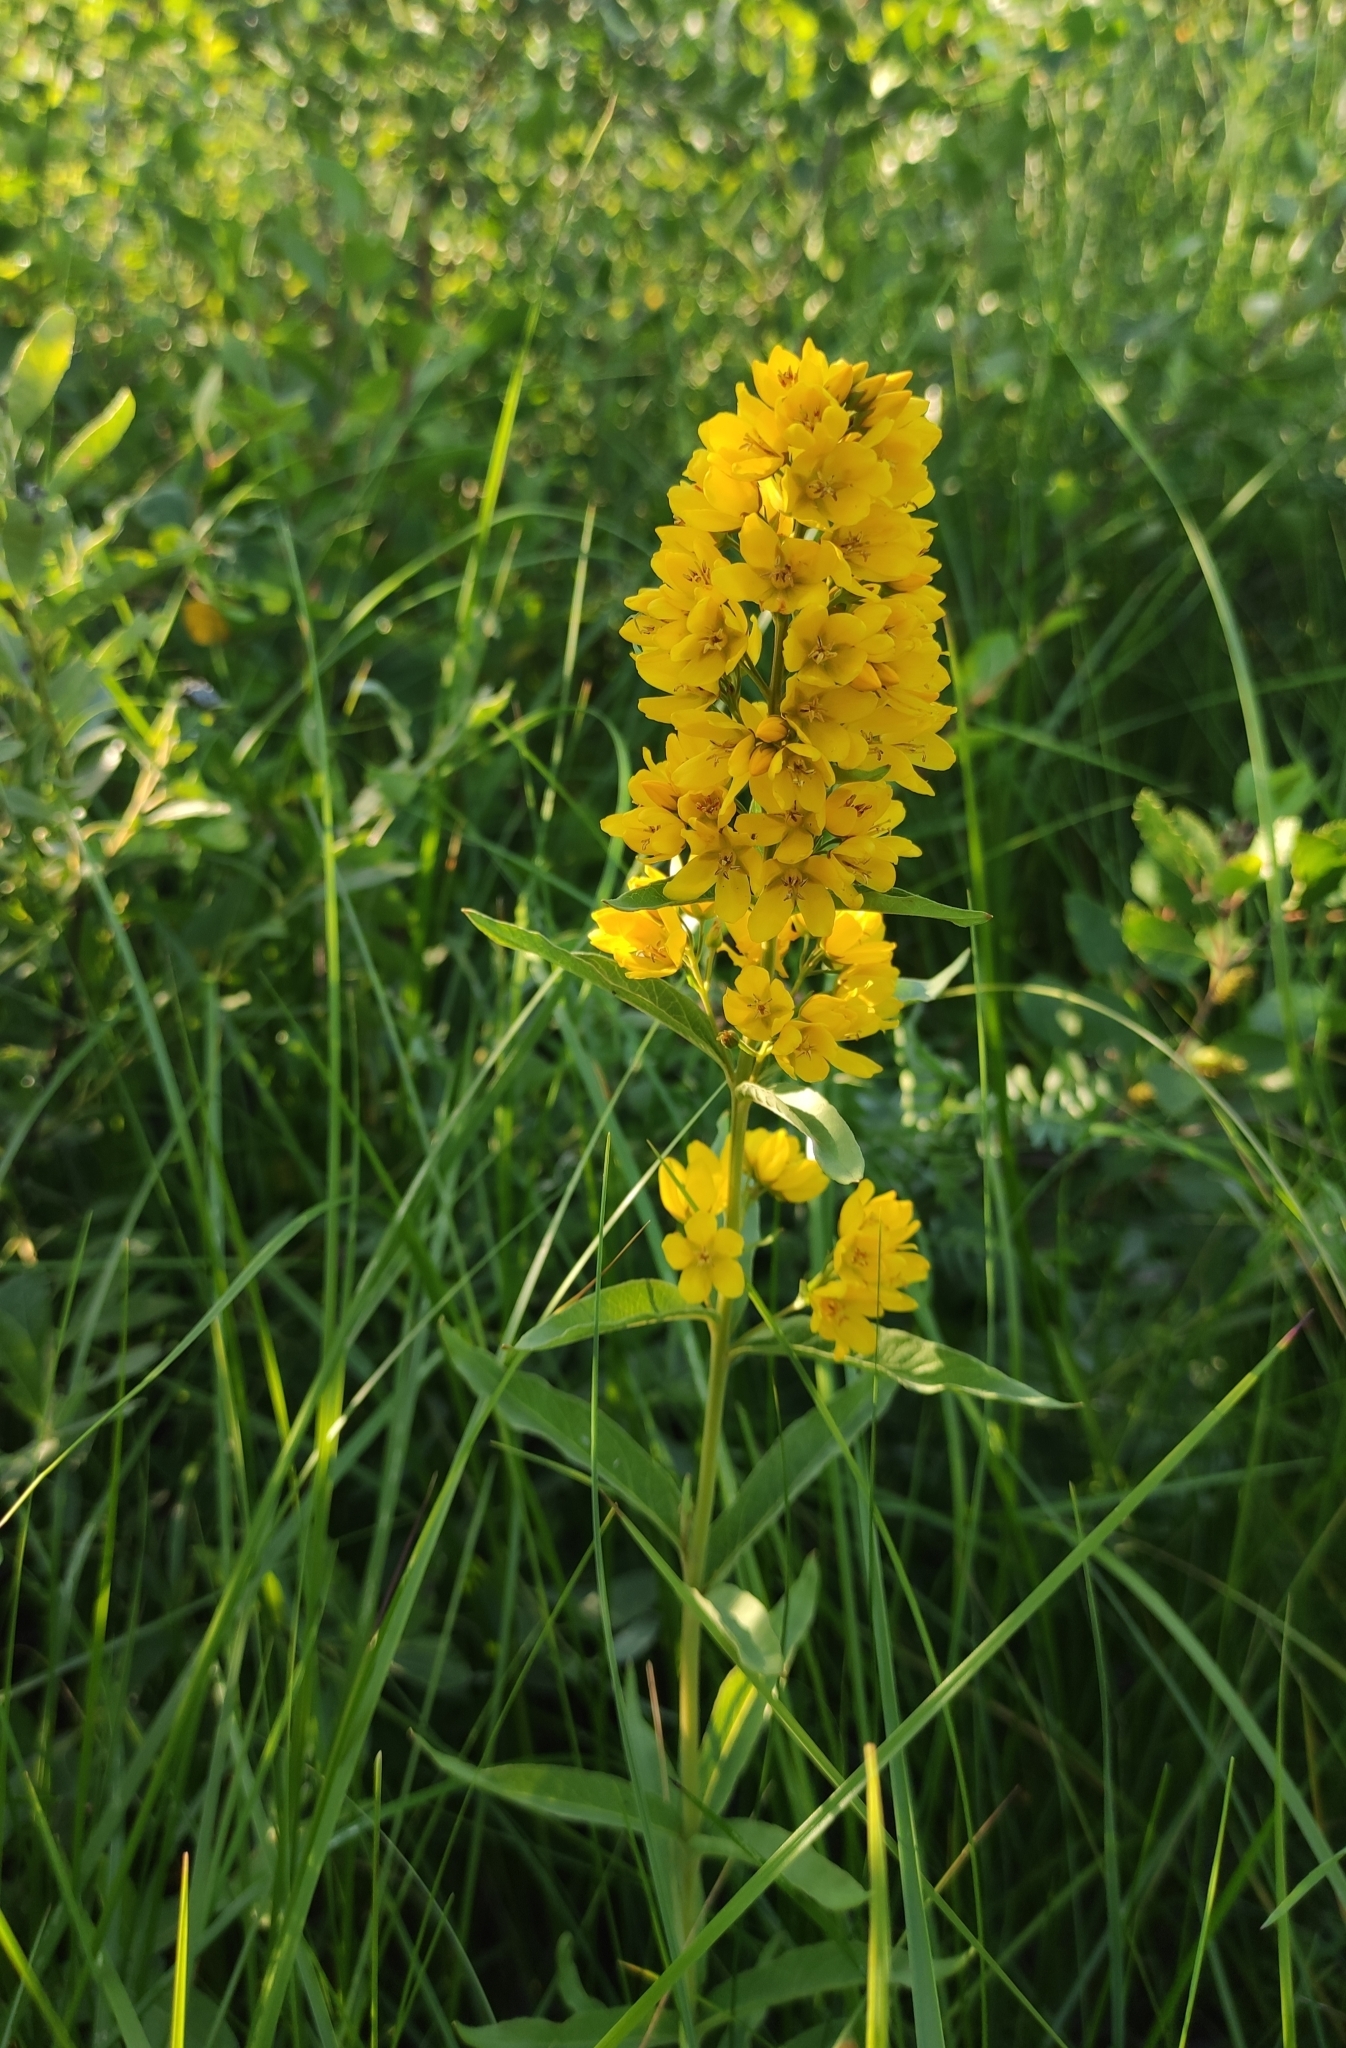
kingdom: Plantae
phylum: Tracheophyta
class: Magnoliopsida
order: Ericales
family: Primulaceae
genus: Lysimachia
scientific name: Lysimachia davurica
